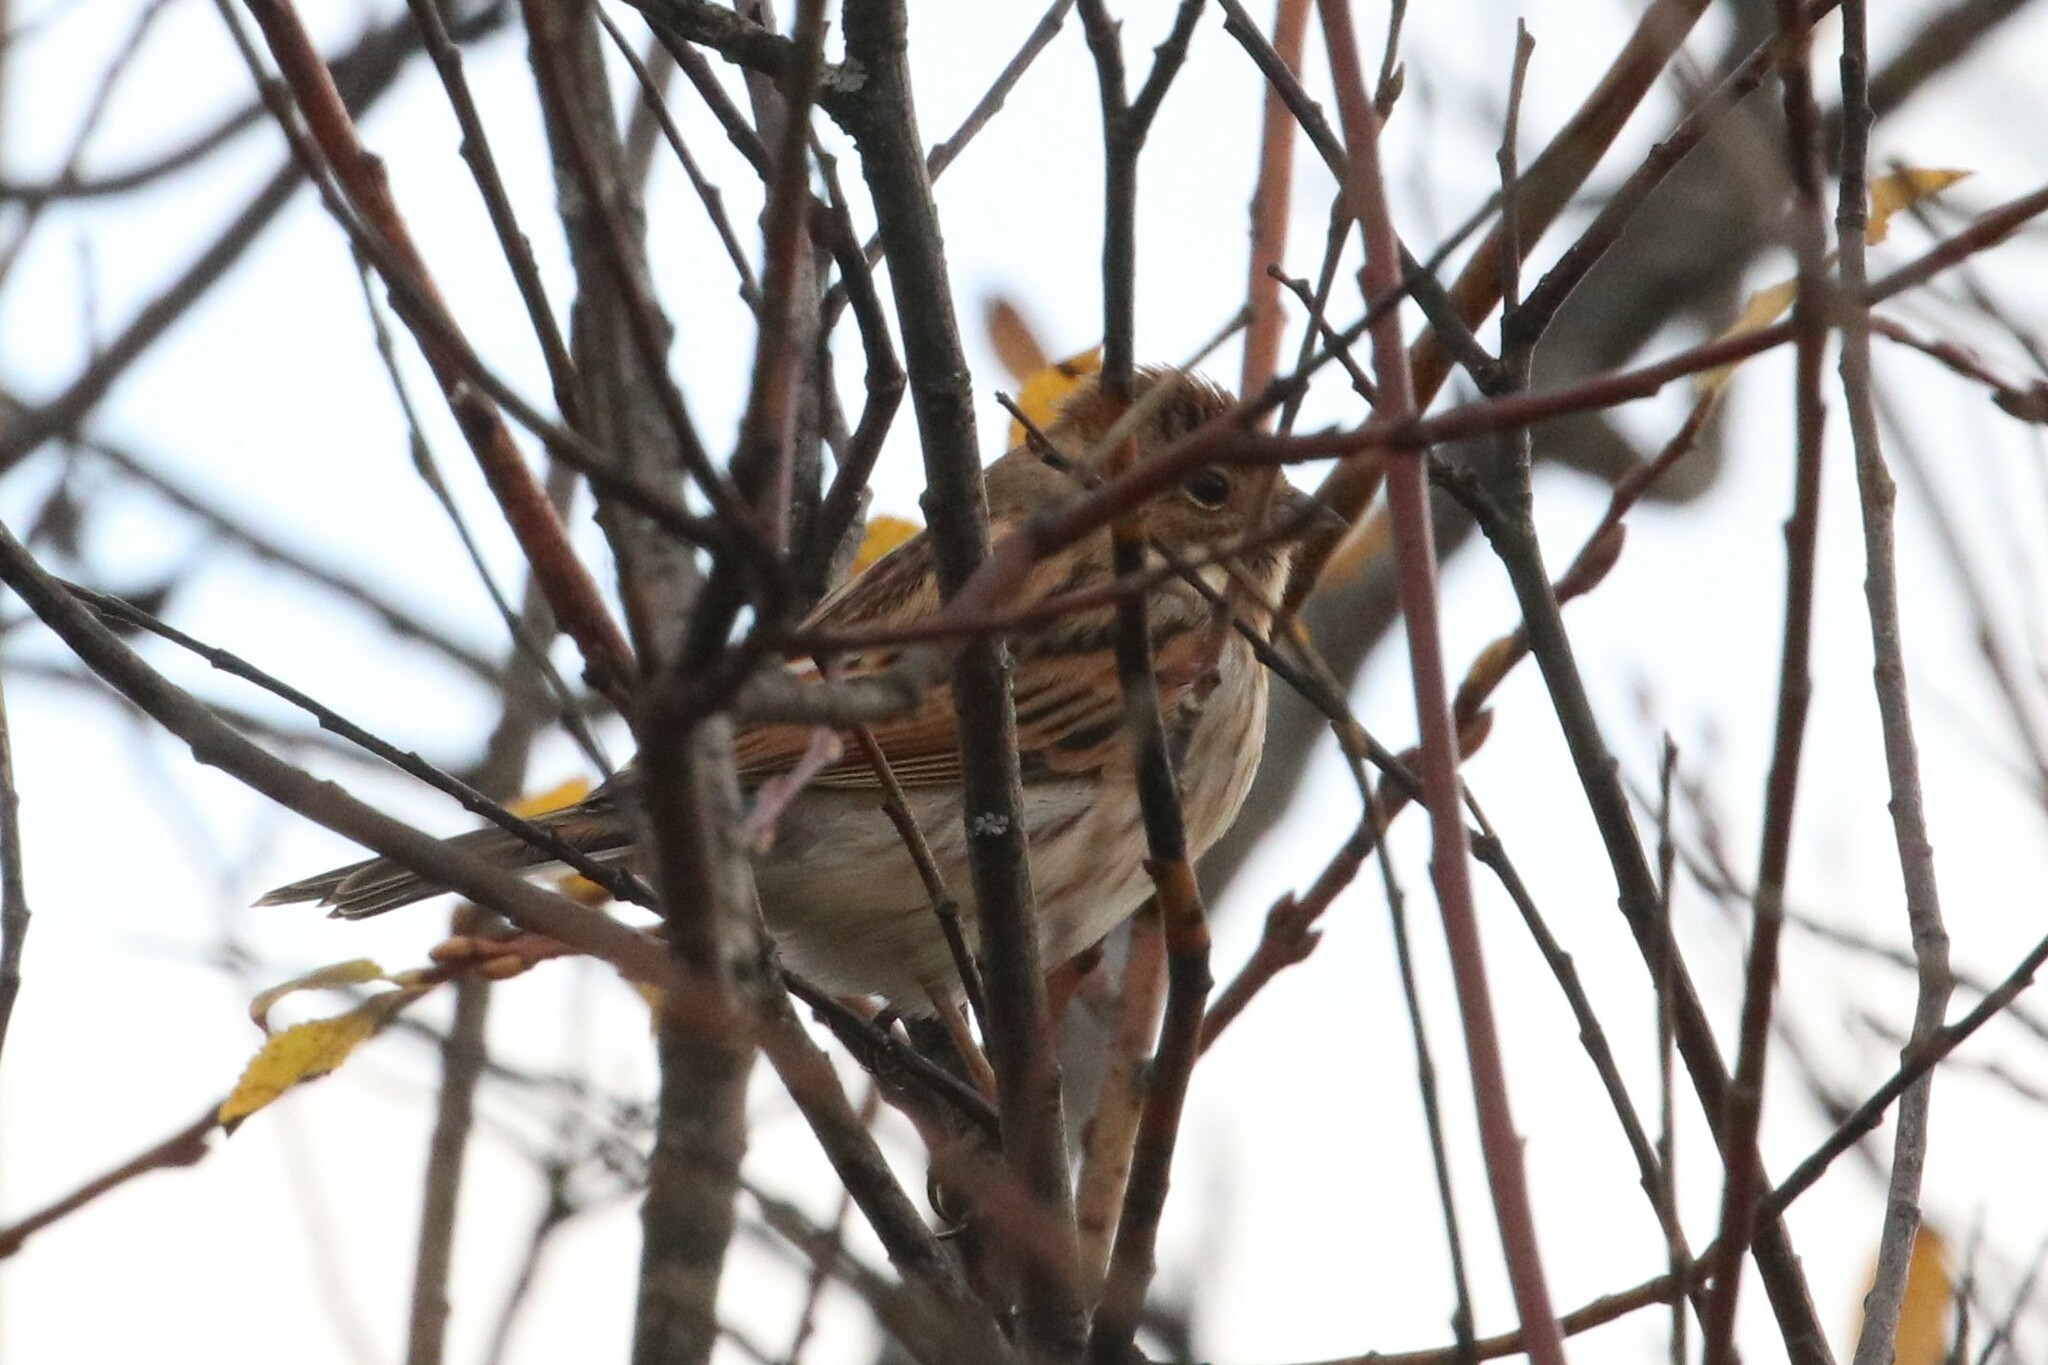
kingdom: Animalia
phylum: Chordata
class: Aves
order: Passeriformes
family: Emberizidae
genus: Emberiza
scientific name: Emberiza schoeniclus
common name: Reed bunting
